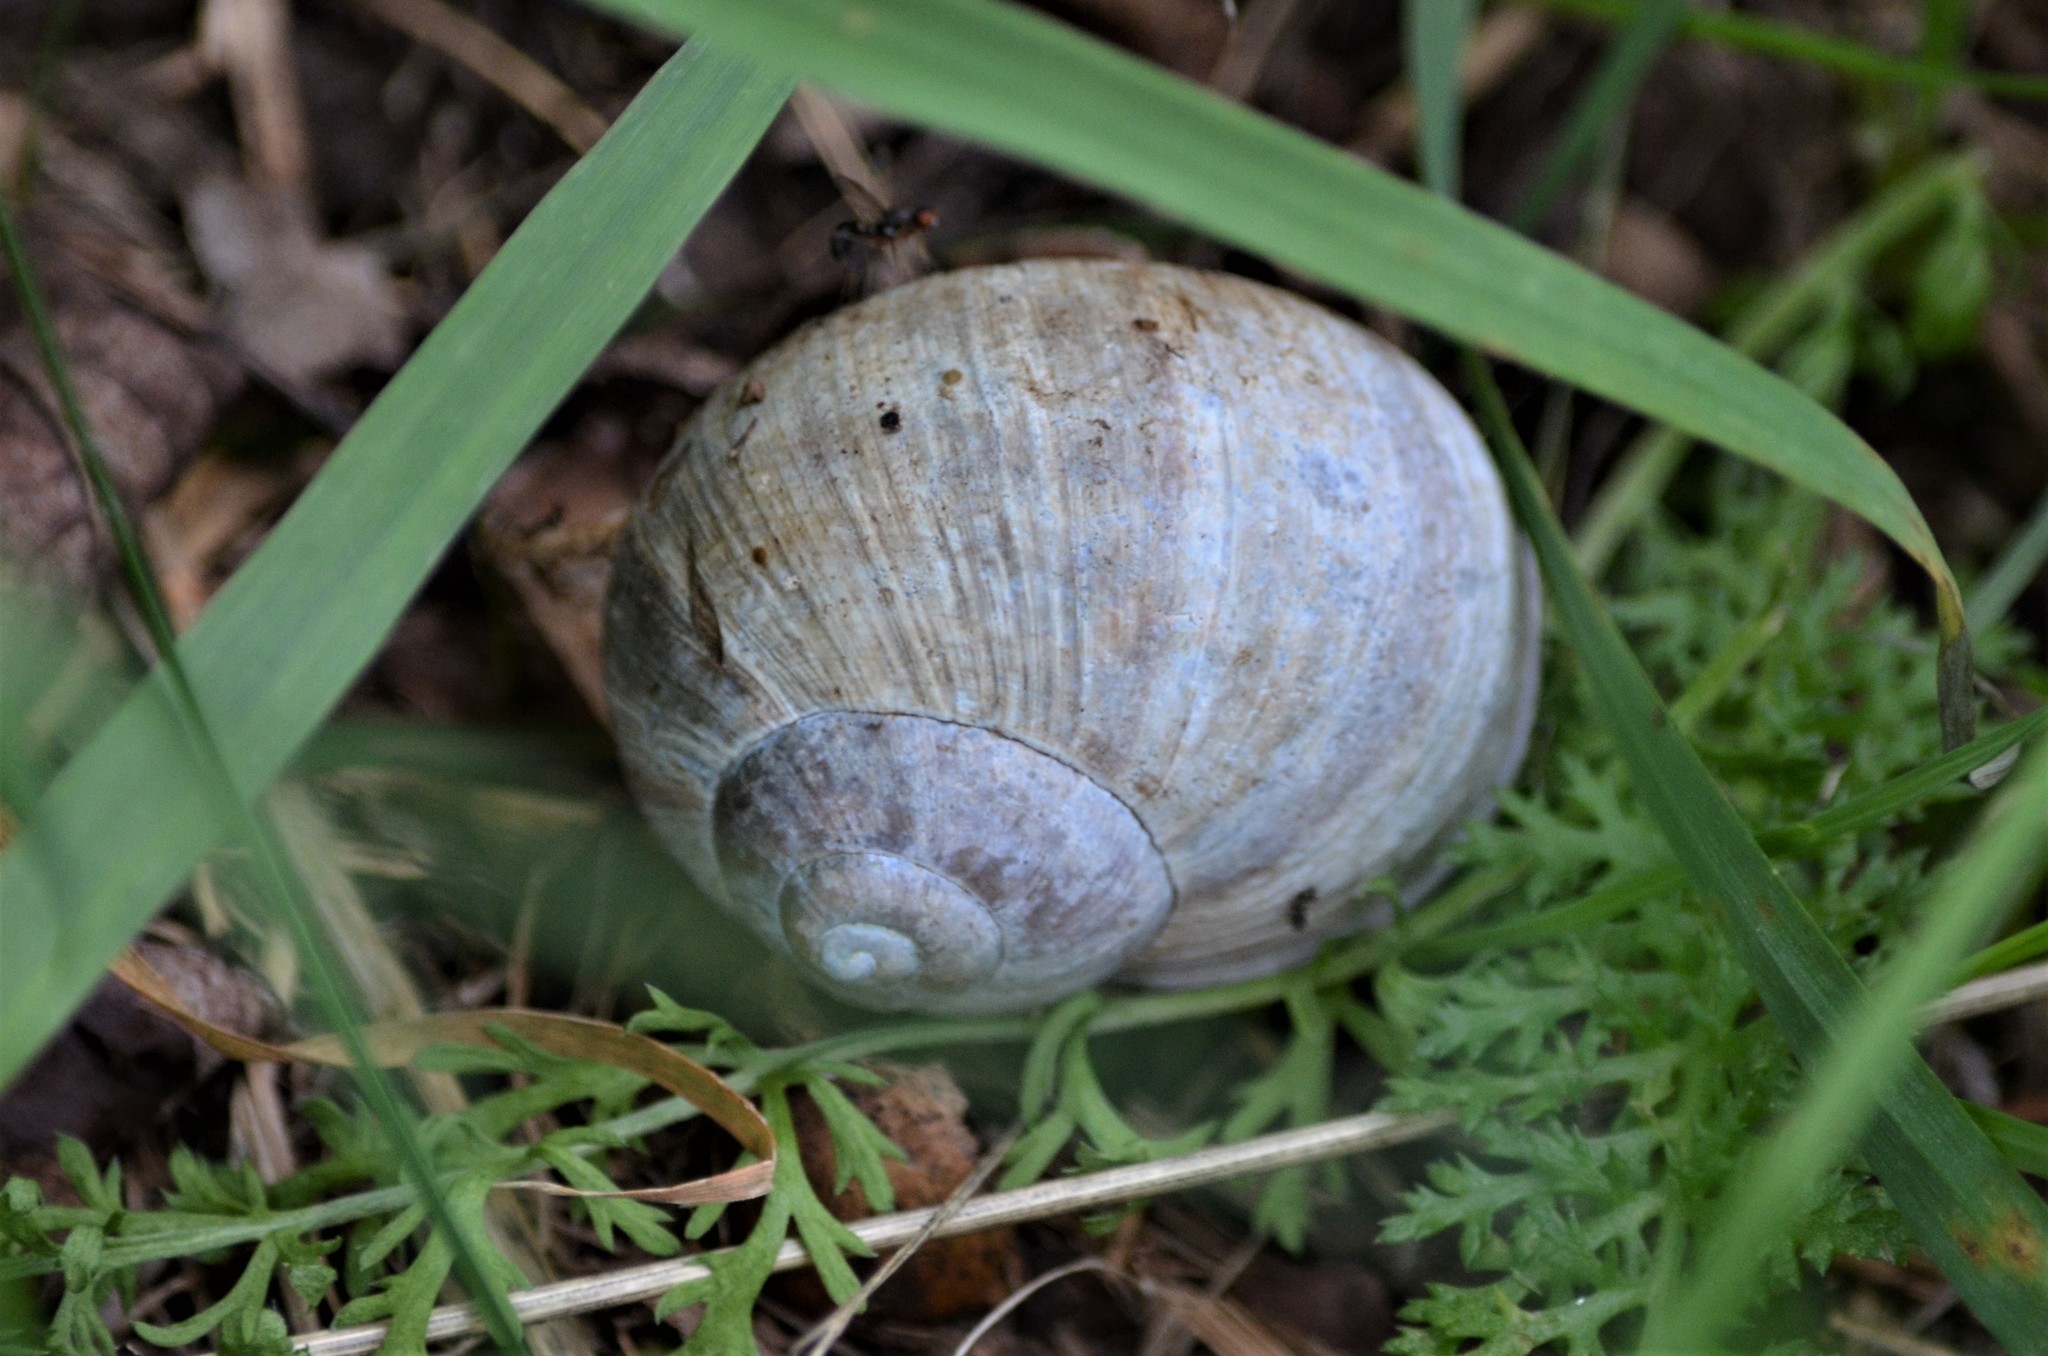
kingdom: Animalia
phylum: Mollusca
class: Gastropoda
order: Stylommatophora
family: Helicidae
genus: Helix
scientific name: Helix pomatia
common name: Roman snail
